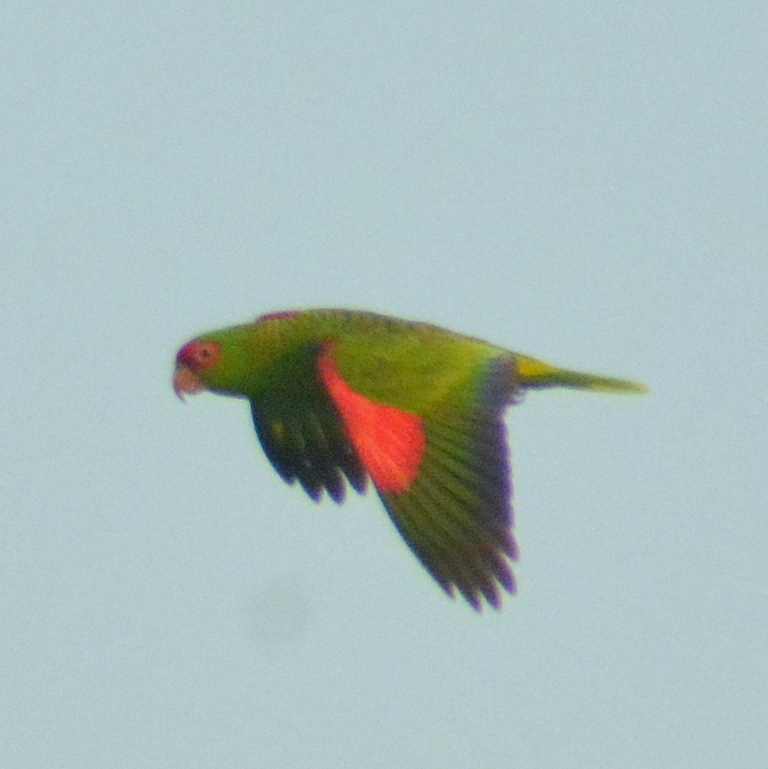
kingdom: Animalia
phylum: Chordata
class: Aves
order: Psittaciformes
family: Psittacidae
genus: Amazona
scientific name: Amazona pretrei
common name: Red-spectacled amazon
